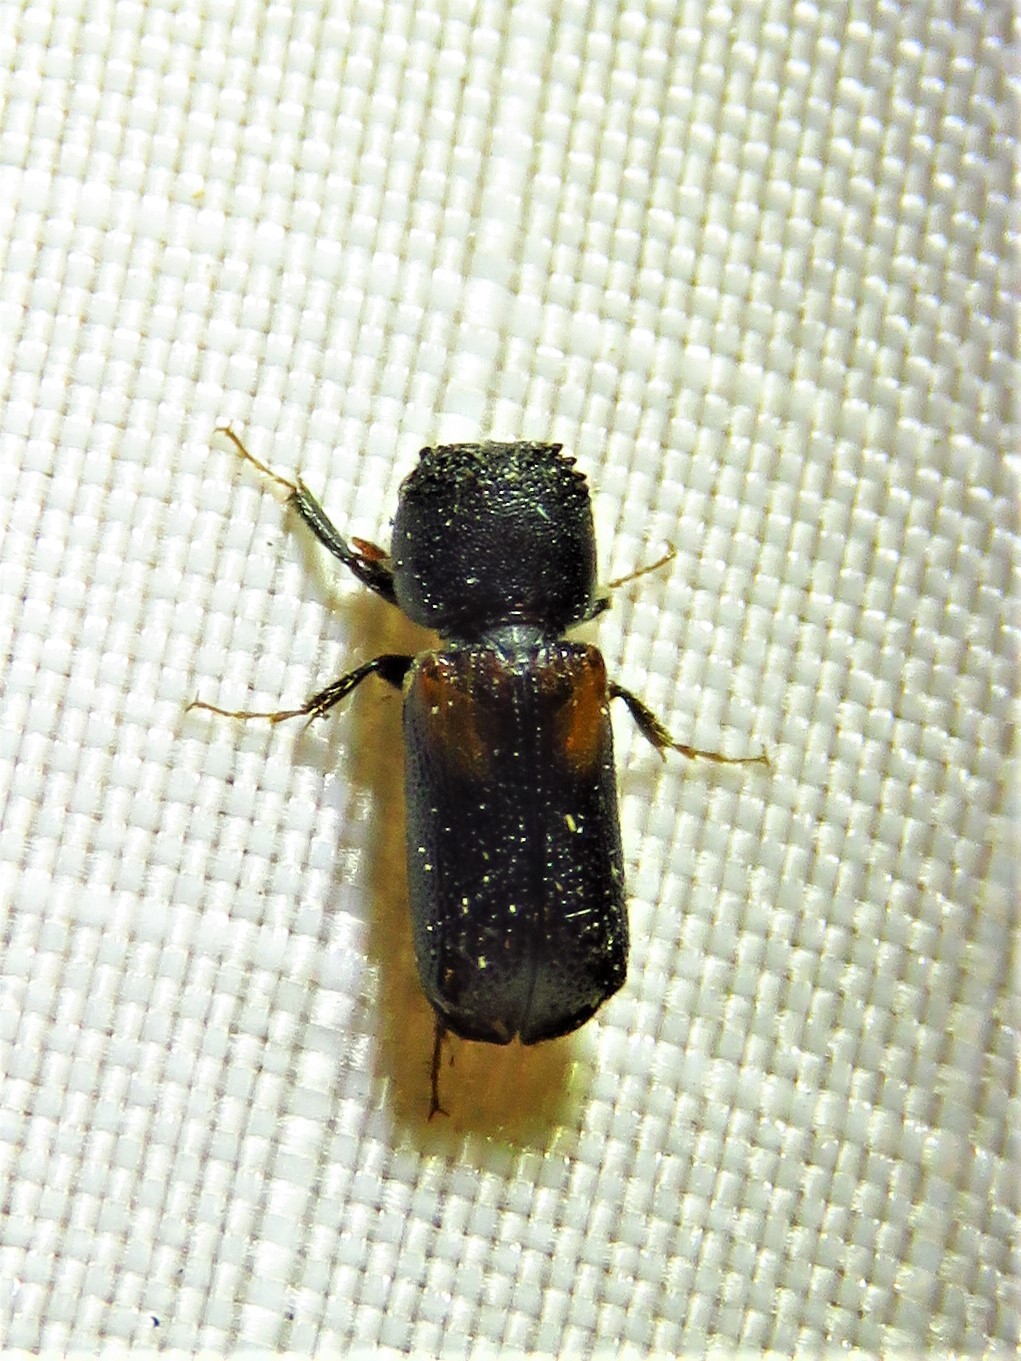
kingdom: Animalia
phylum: Arthropoda
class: Insecta
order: Coleoptera
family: Bostrichidae
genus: Xylobiops
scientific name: Xylobiops basilaris
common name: Red-shouldered bostrichid
